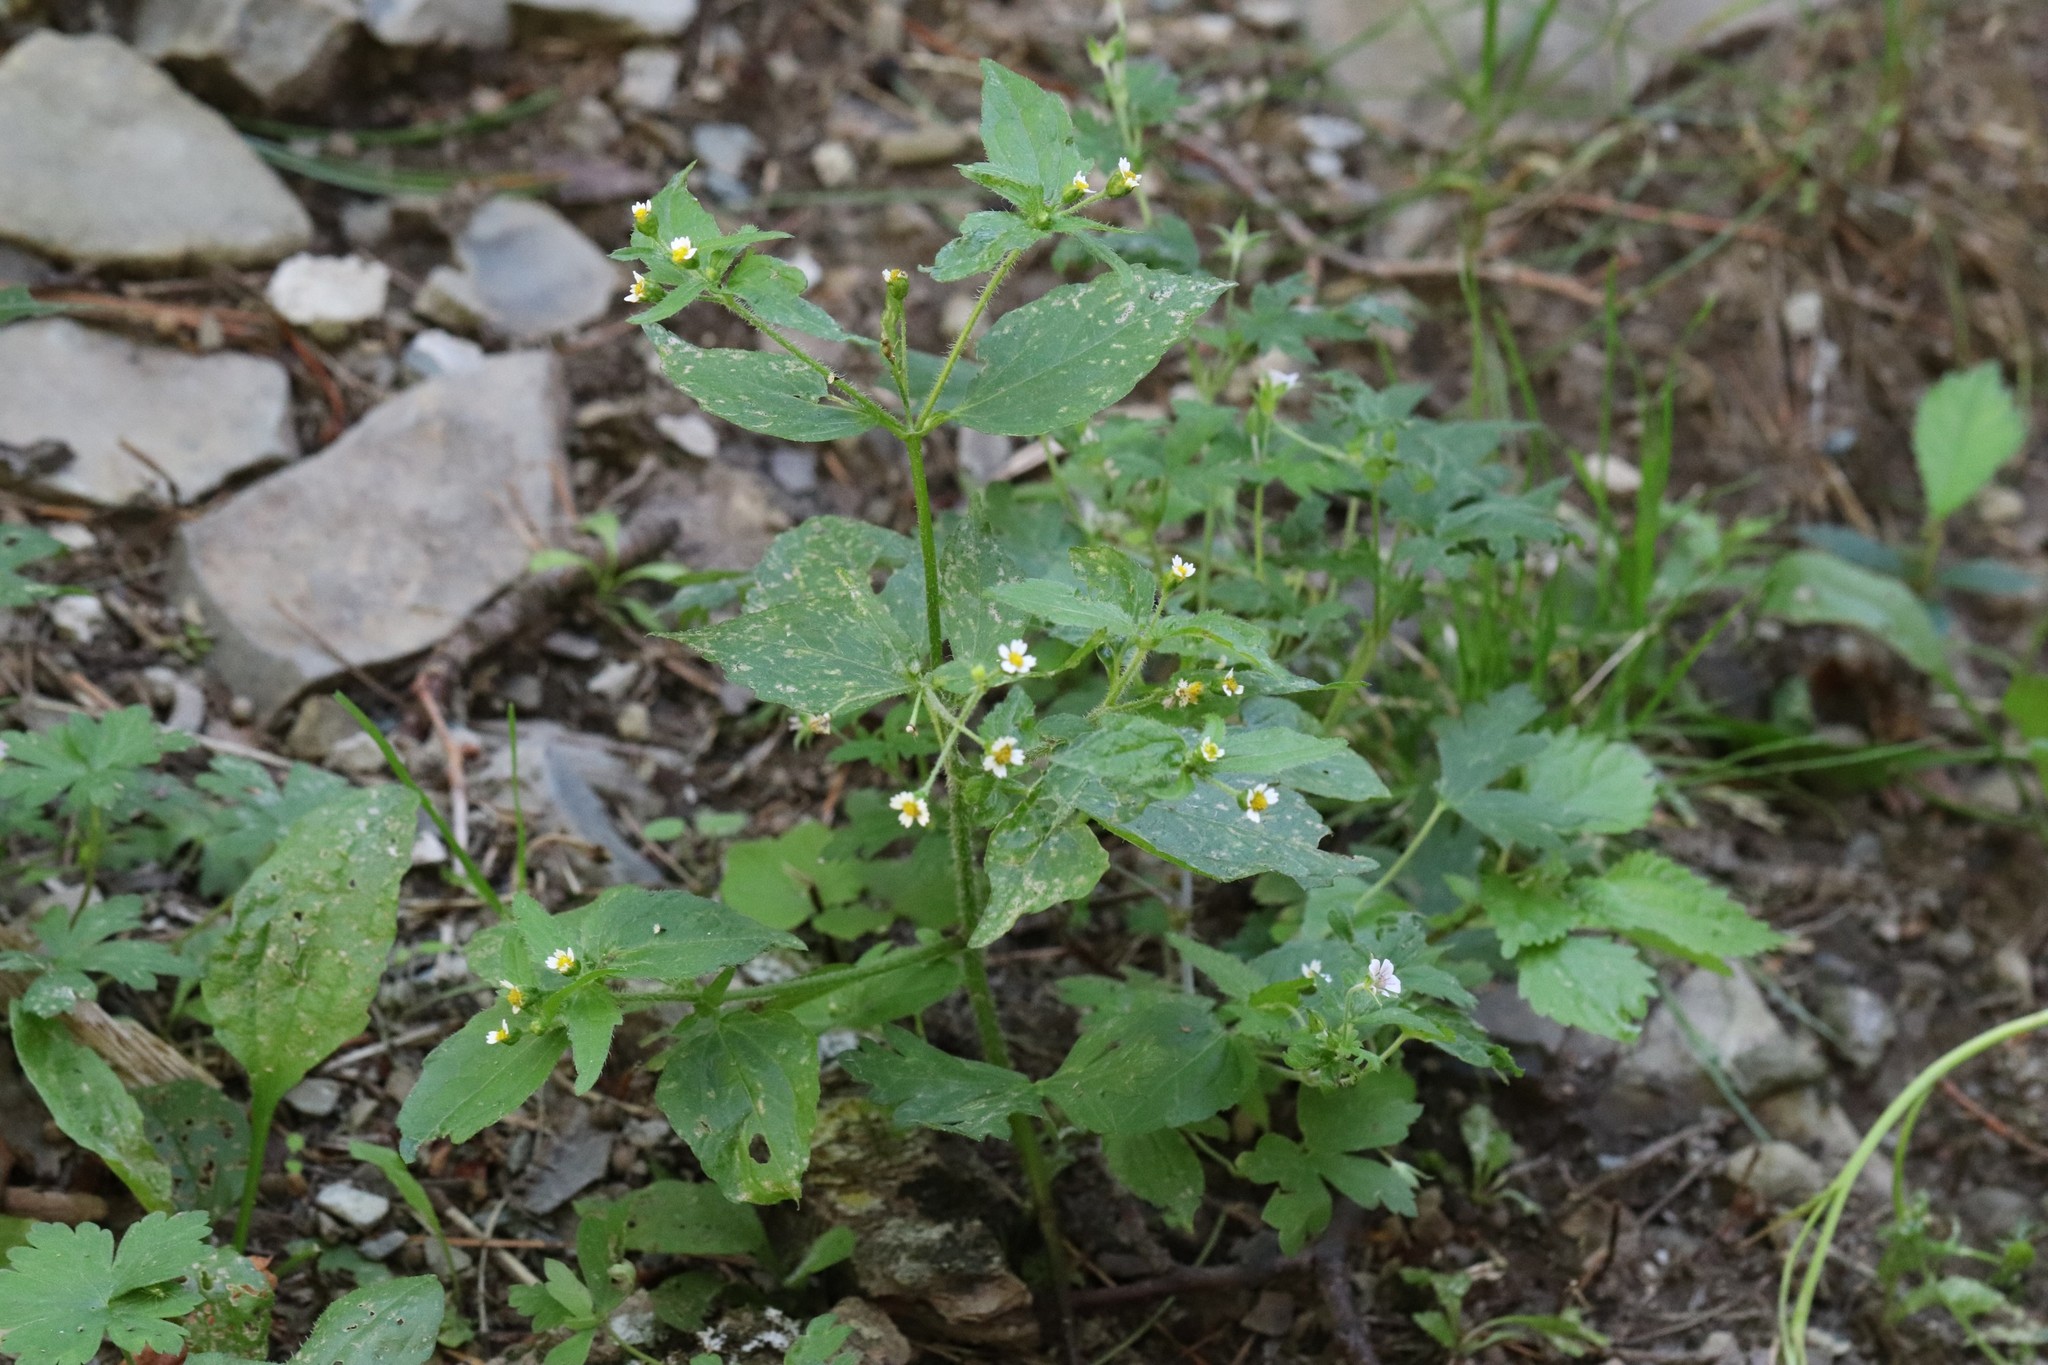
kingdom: Plantae
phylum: Tracheophyta
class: Magnoliopsida
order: Asterales
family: Asteraceae
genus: Galinsoga
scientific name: Galinsoga quadriradiata
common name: Shaggy soldier
